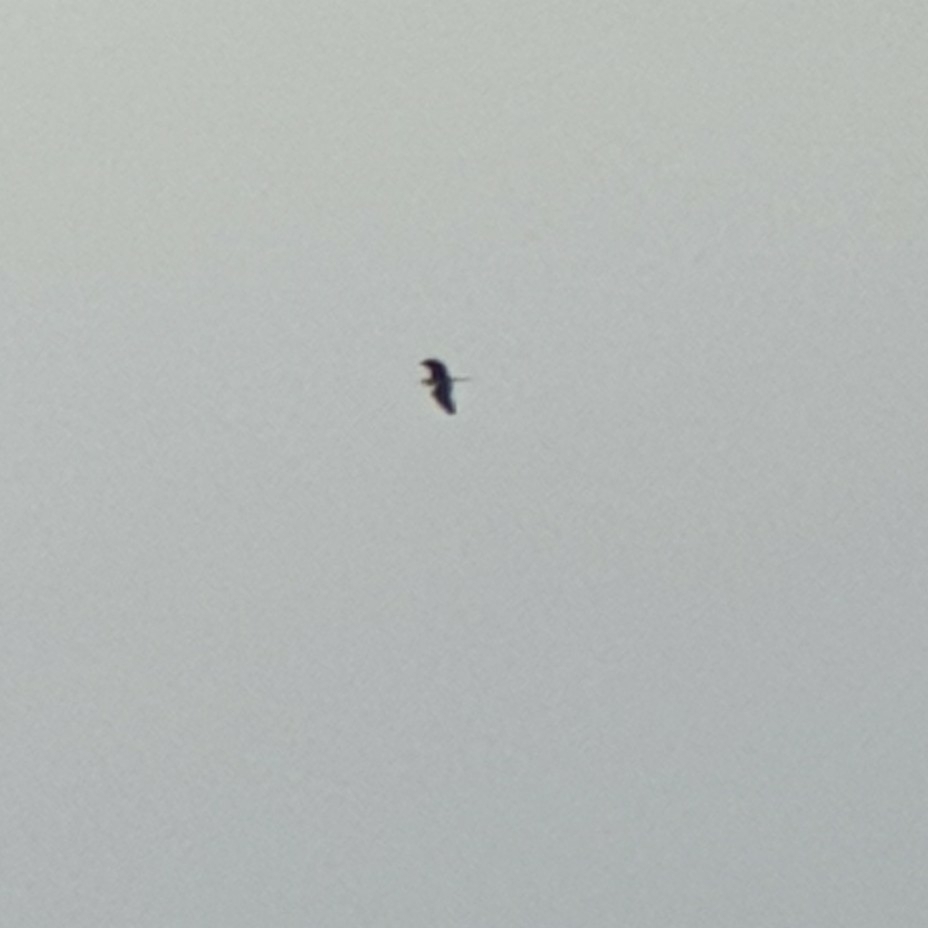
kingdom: Animalia
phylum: Chordata
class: Aves
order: Pelecaniformes
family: Ardeidae
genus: Ardea
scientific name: Ardea cinerea
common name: Grey heron
